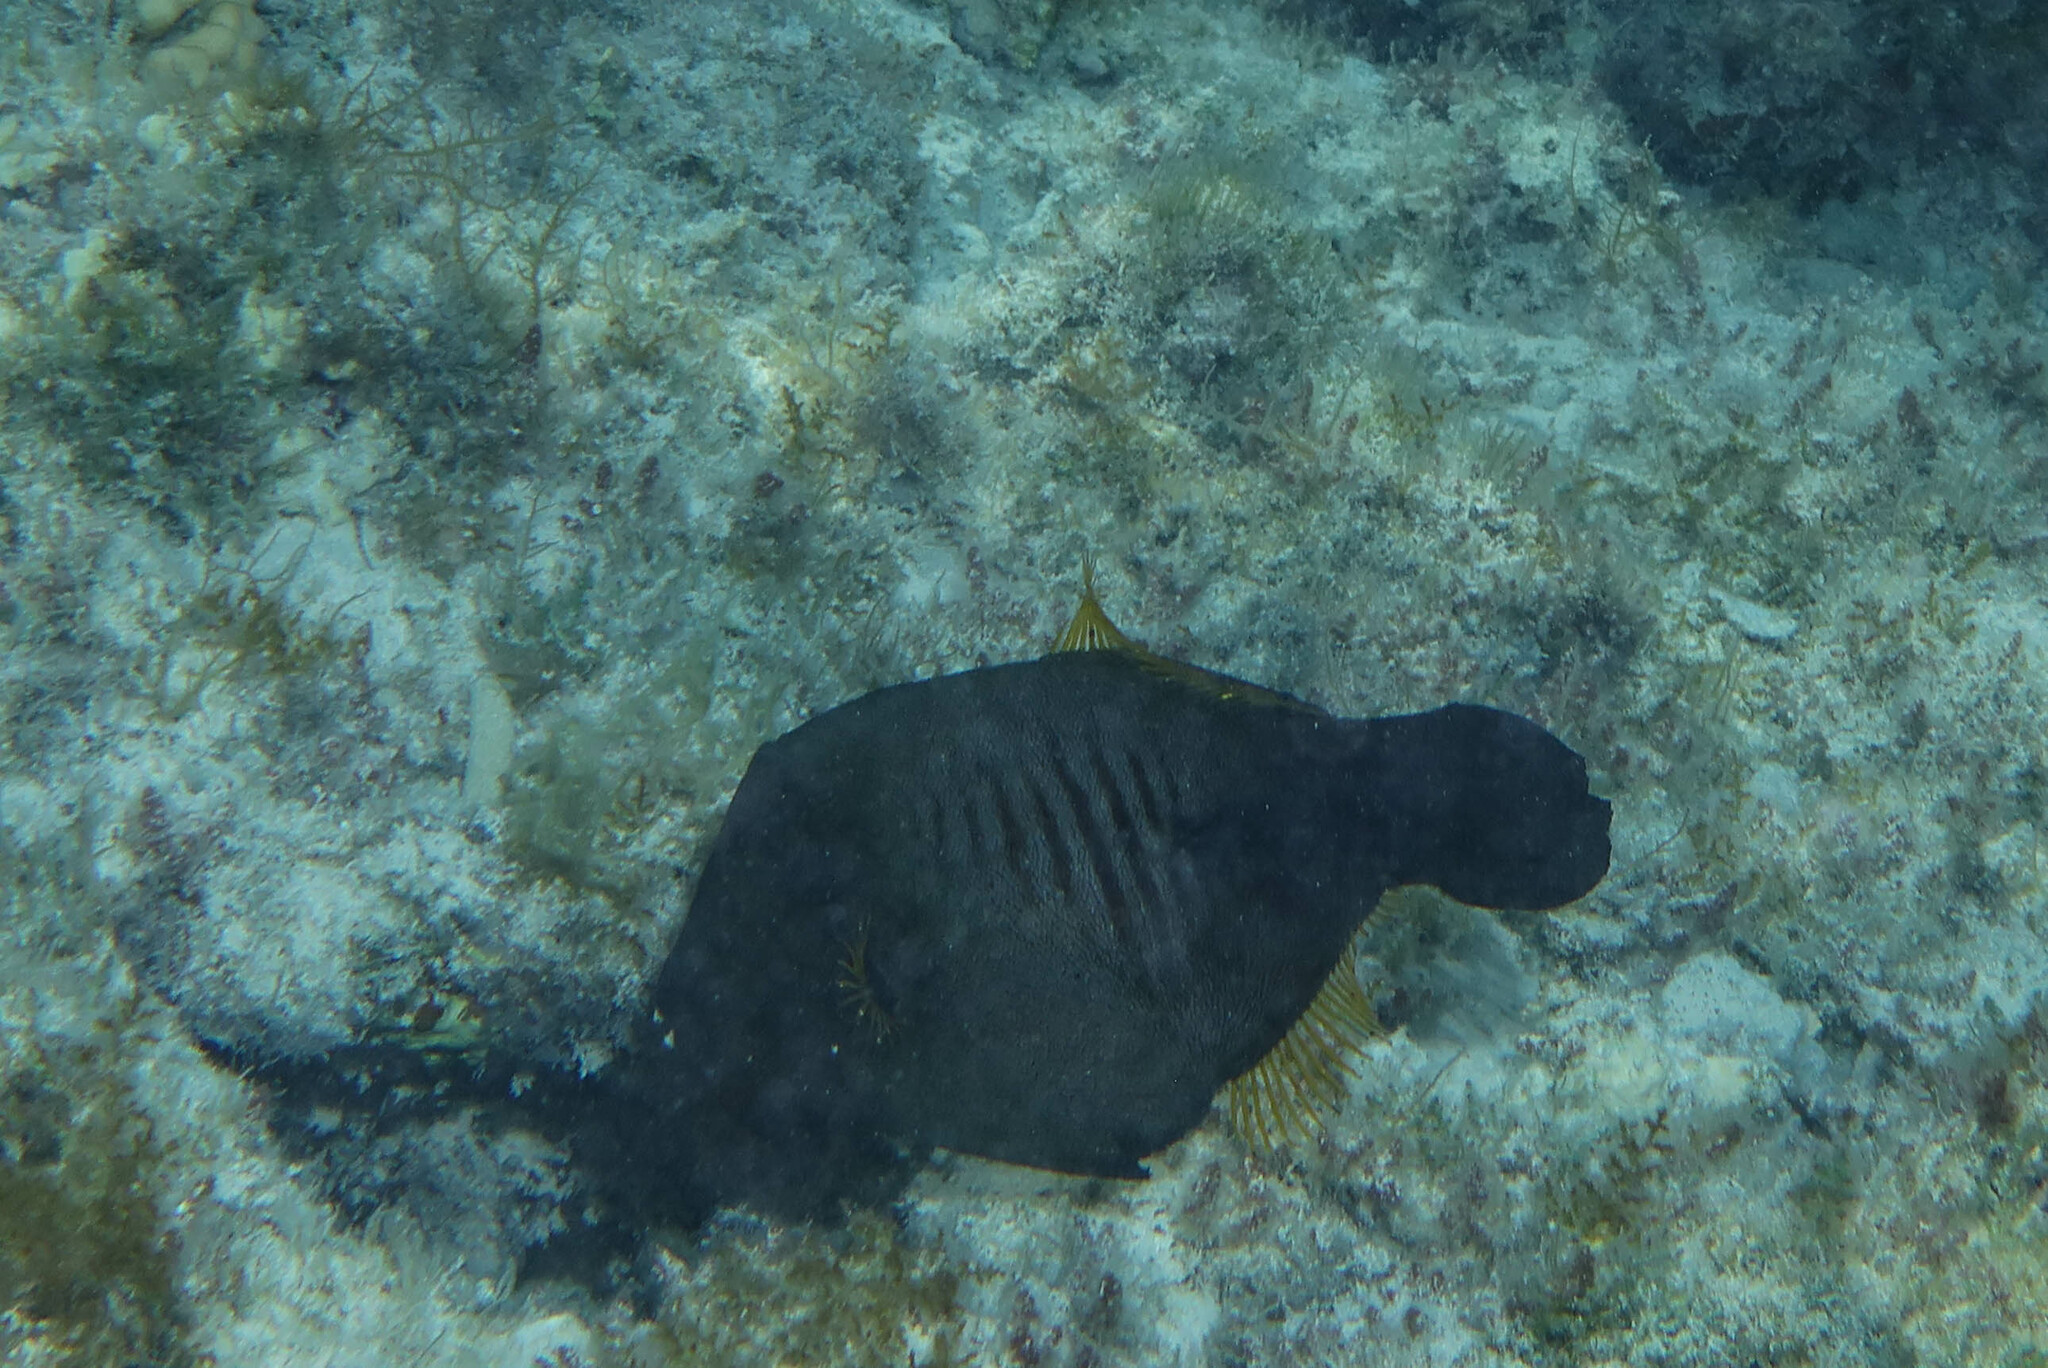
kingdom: Animalia
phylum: Chordata
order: Tetraodontiformes
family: Monacanthidae
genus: Amanses
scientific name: Amanses scopas
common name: Broom filefish
